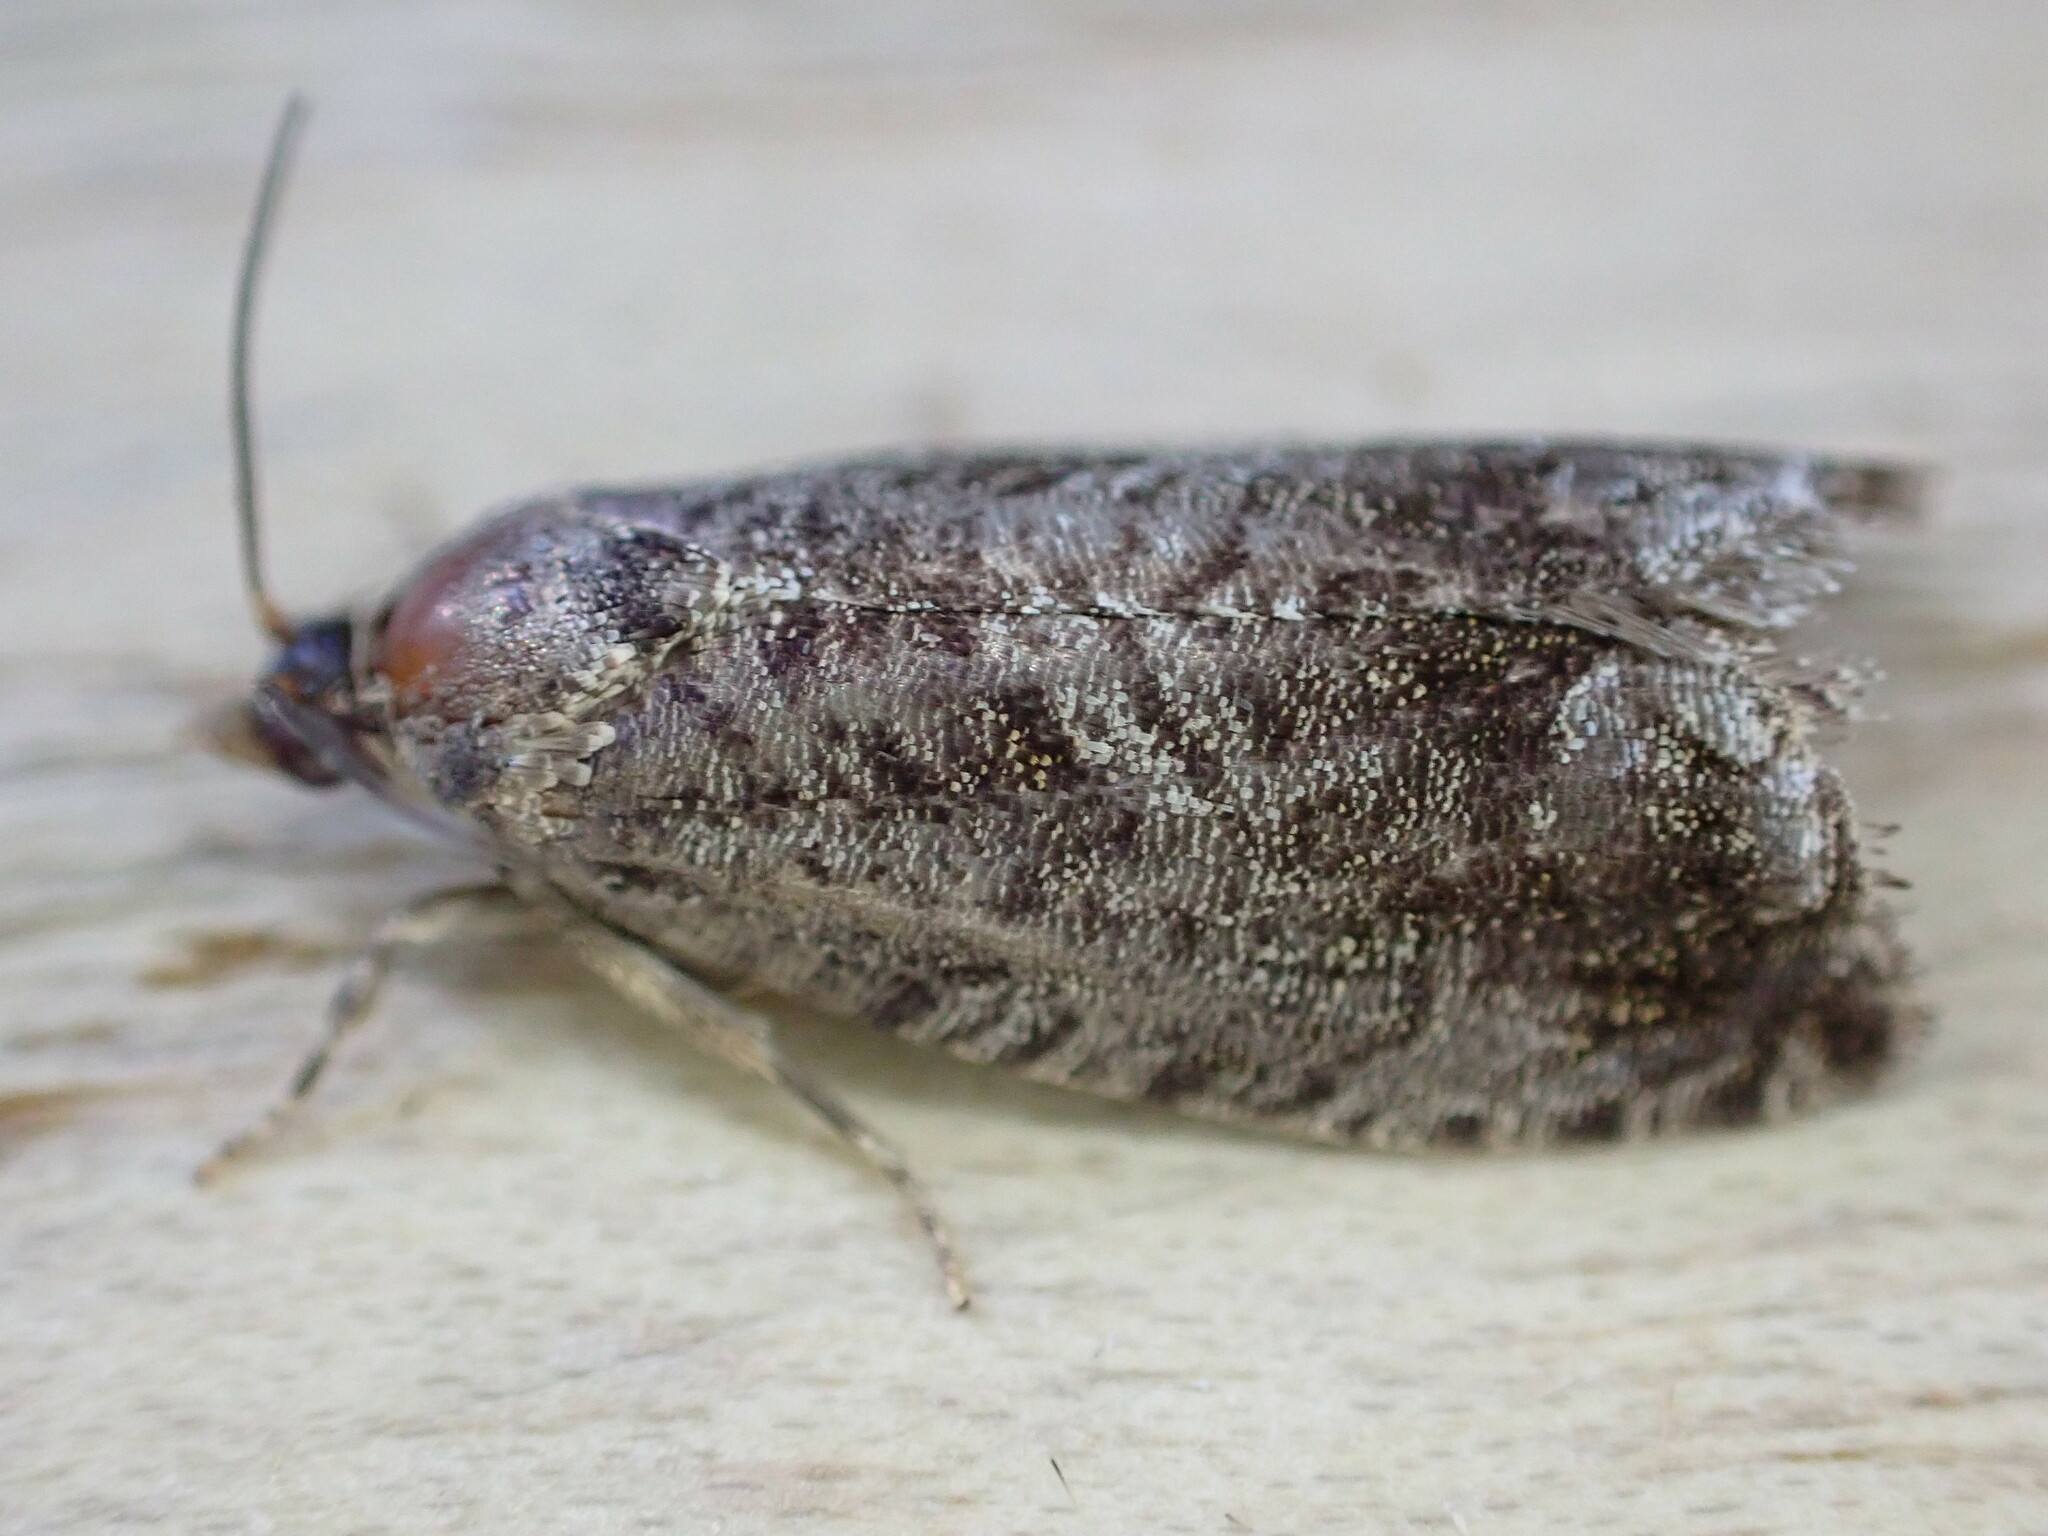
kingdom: Animalia
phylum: Arthropoda
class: Insecta
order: Lepidoptera
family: Tortricidae
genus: Cydia
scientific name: Cydia pomonella
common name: Codling moth
